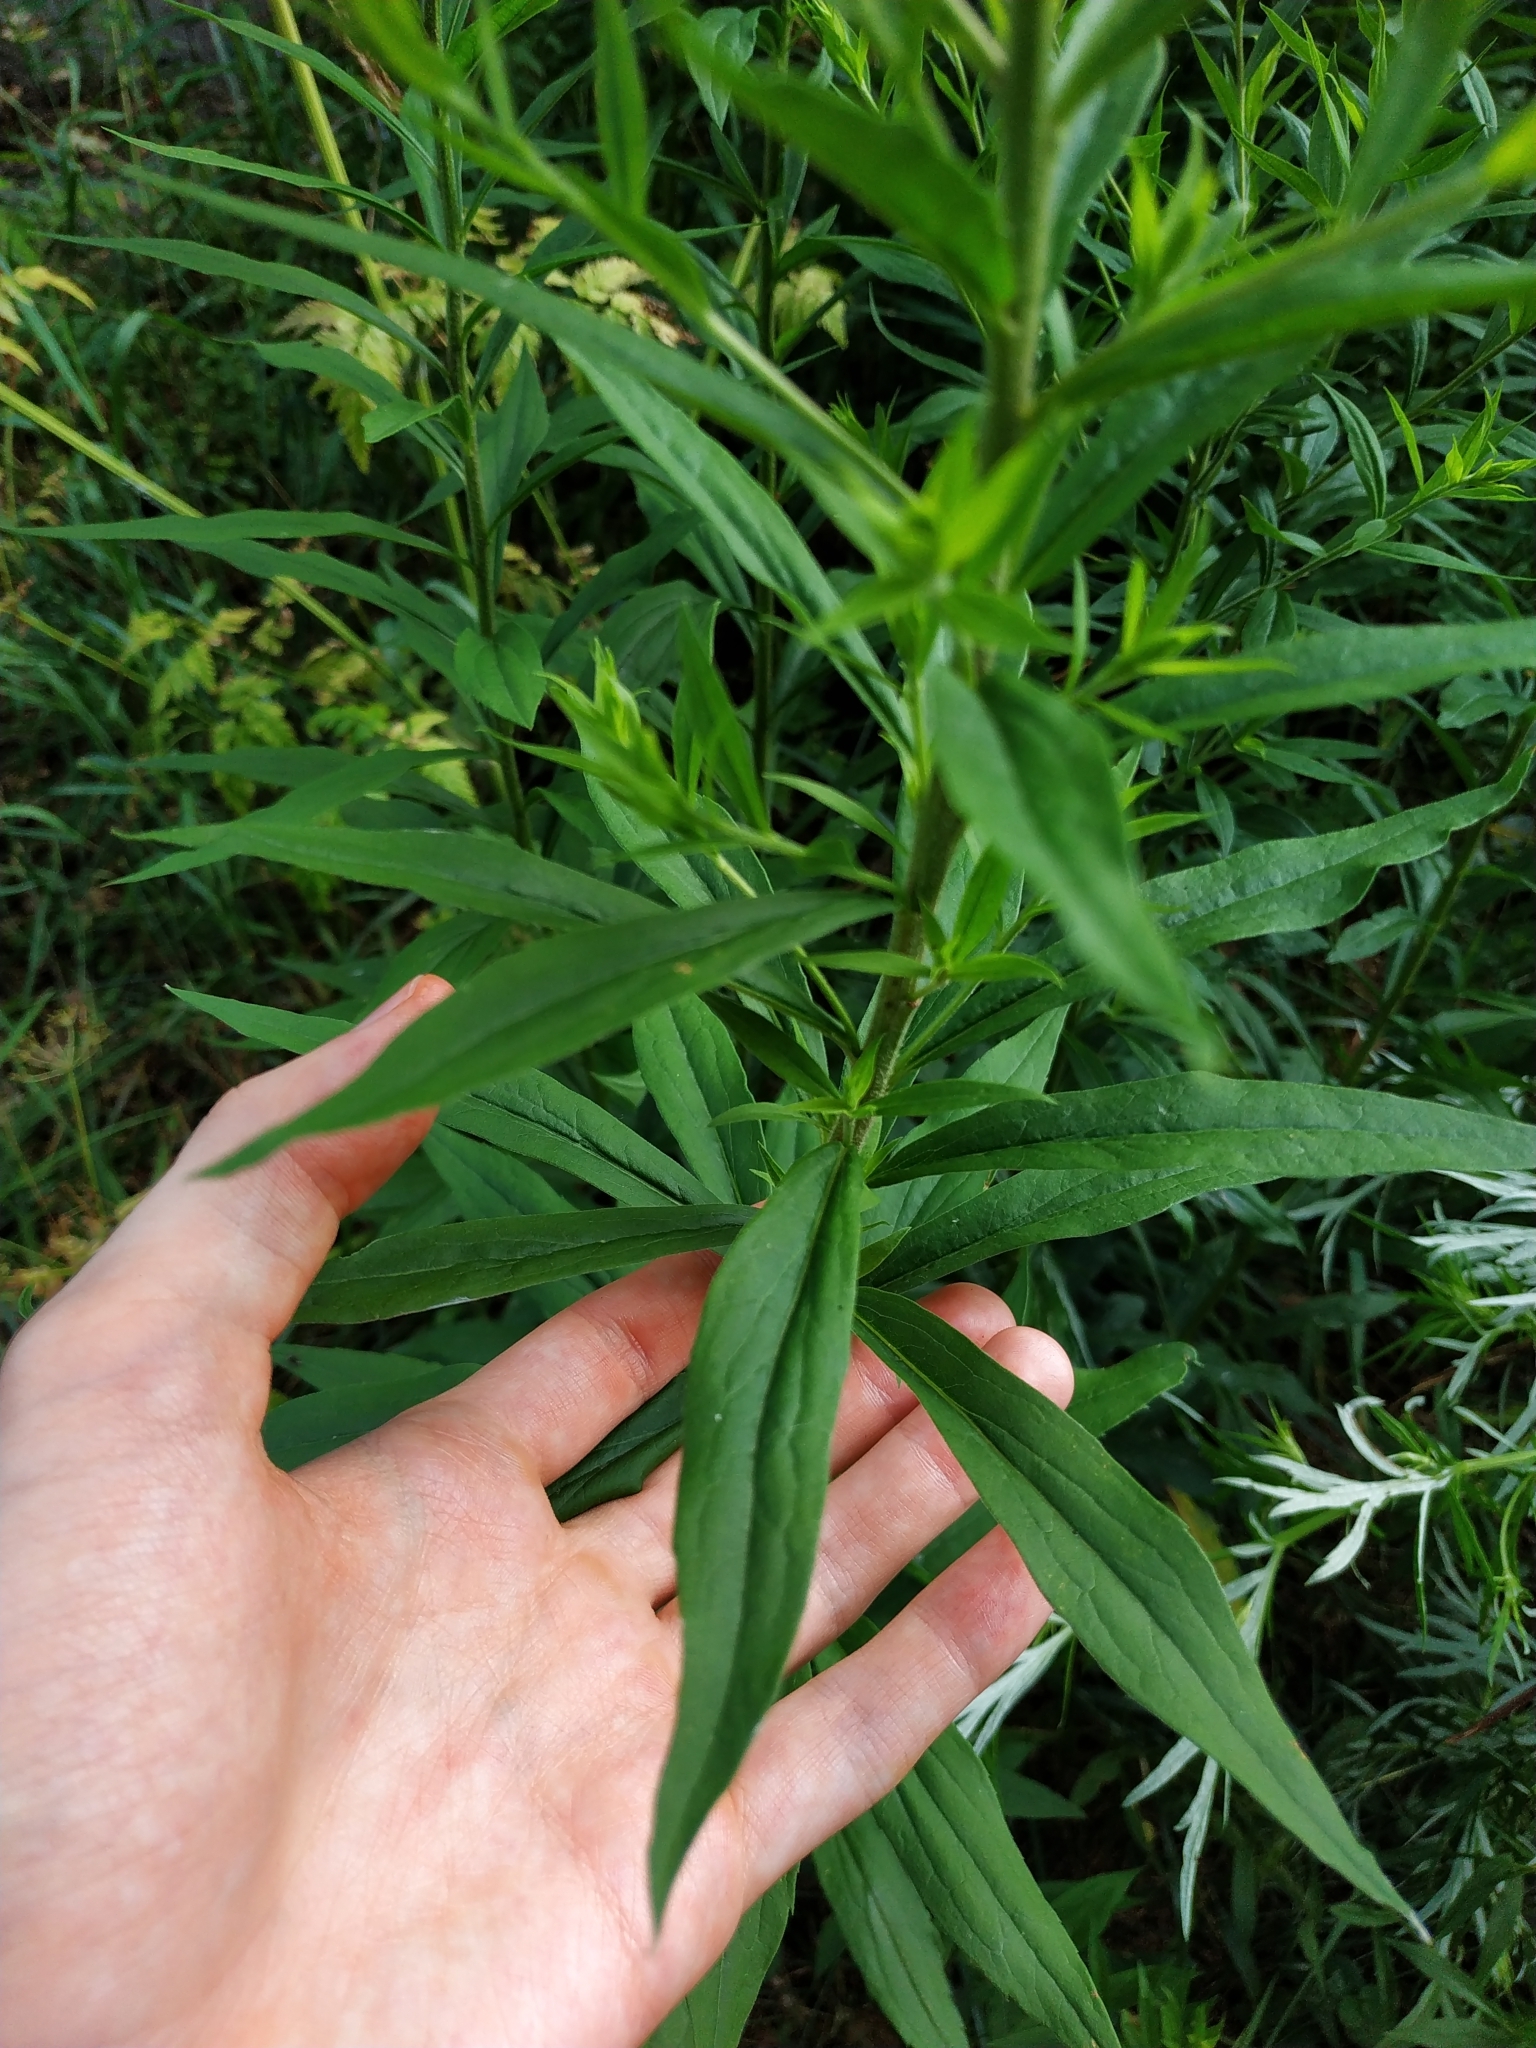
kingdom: Plantae
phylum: Tracheophyta
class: Magnoliopsida
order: Asterales
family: Asteraceae
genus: Solidago
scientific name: Solidago canadensis
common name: Canada goldenrod
